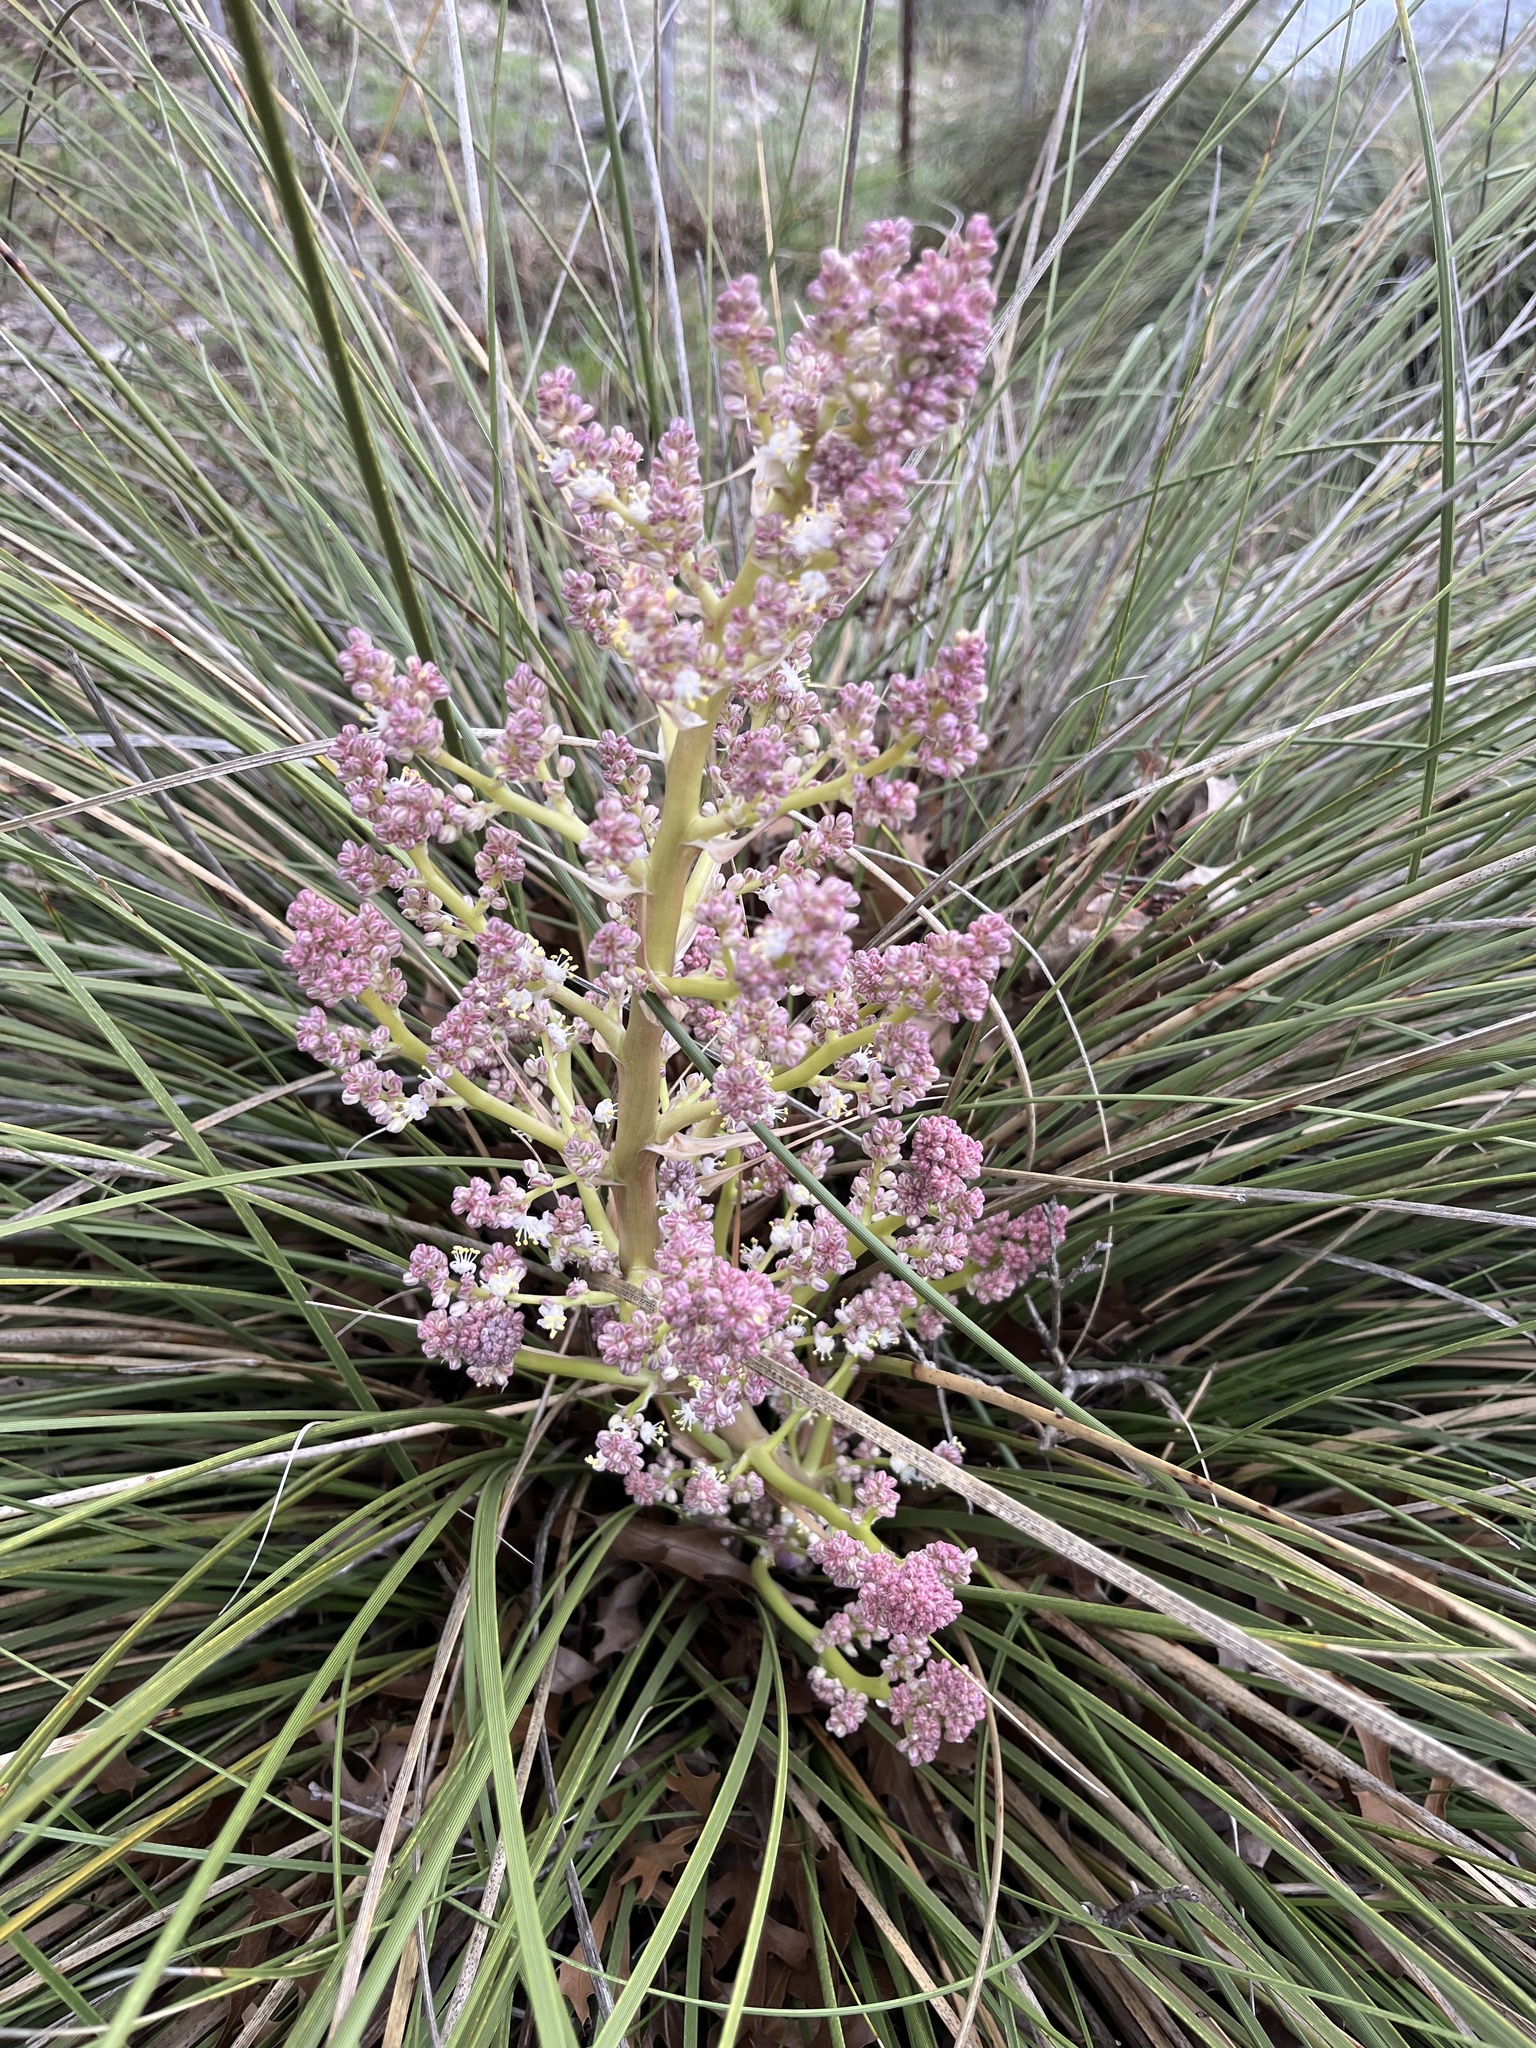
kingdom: Plantae
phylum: Tracheophyta
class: Liliopsida
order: Asparagales
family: Asparagaceae
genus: Nolina
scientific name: Nolina texana
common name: Texas sacahuiste
